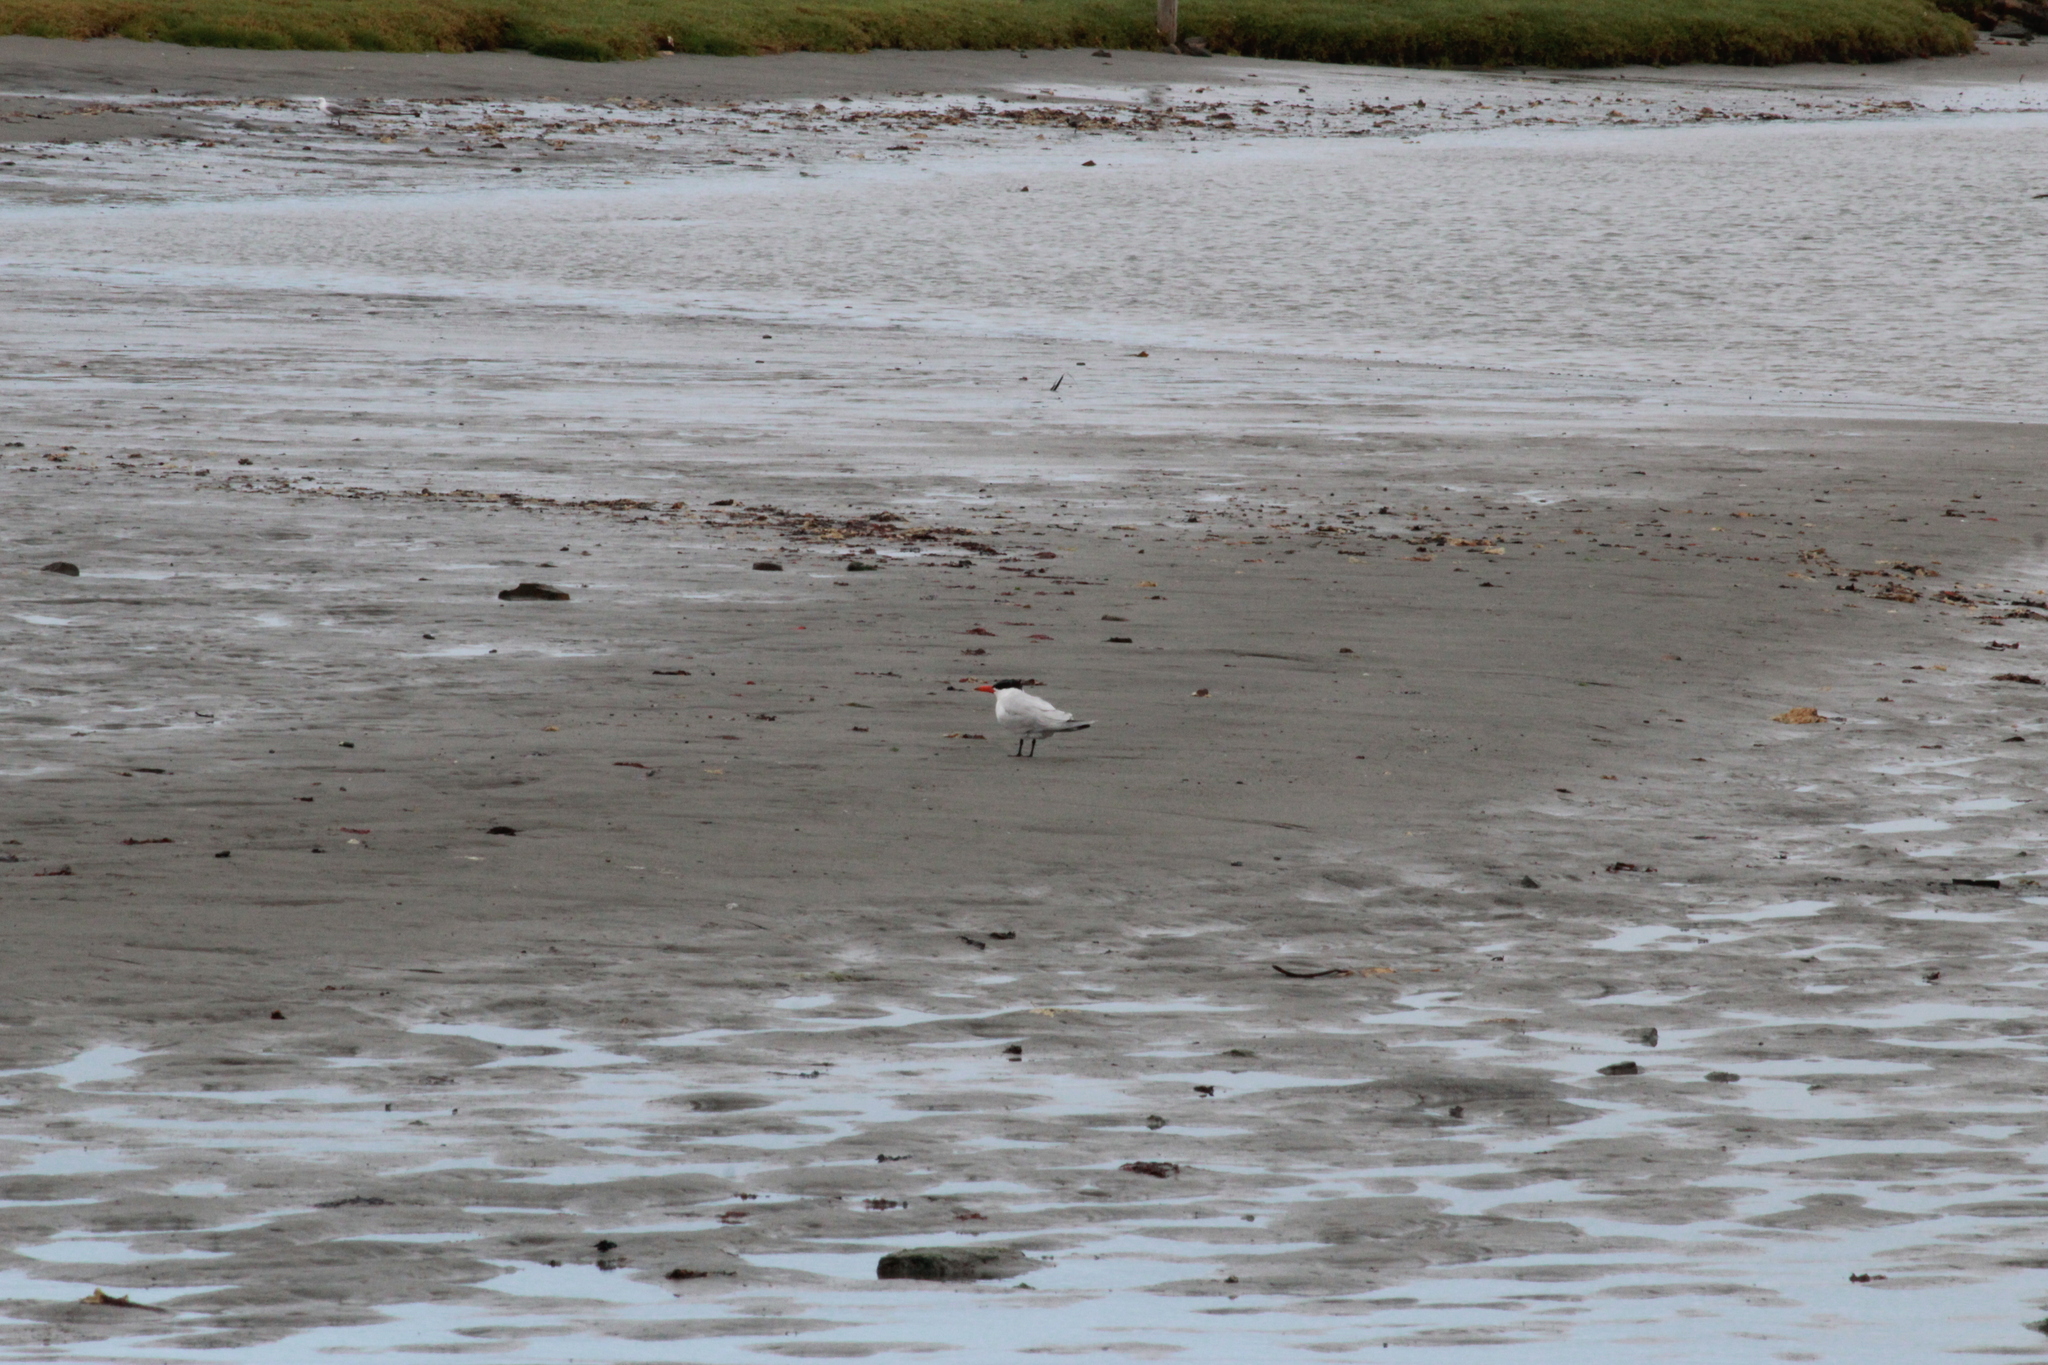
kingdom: Animalia
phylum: Chordata
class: Aves
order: Charadriiformes
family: Laridae
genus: Hydroprogne
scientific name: Hydroprogne caspia
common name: Caspian tern
